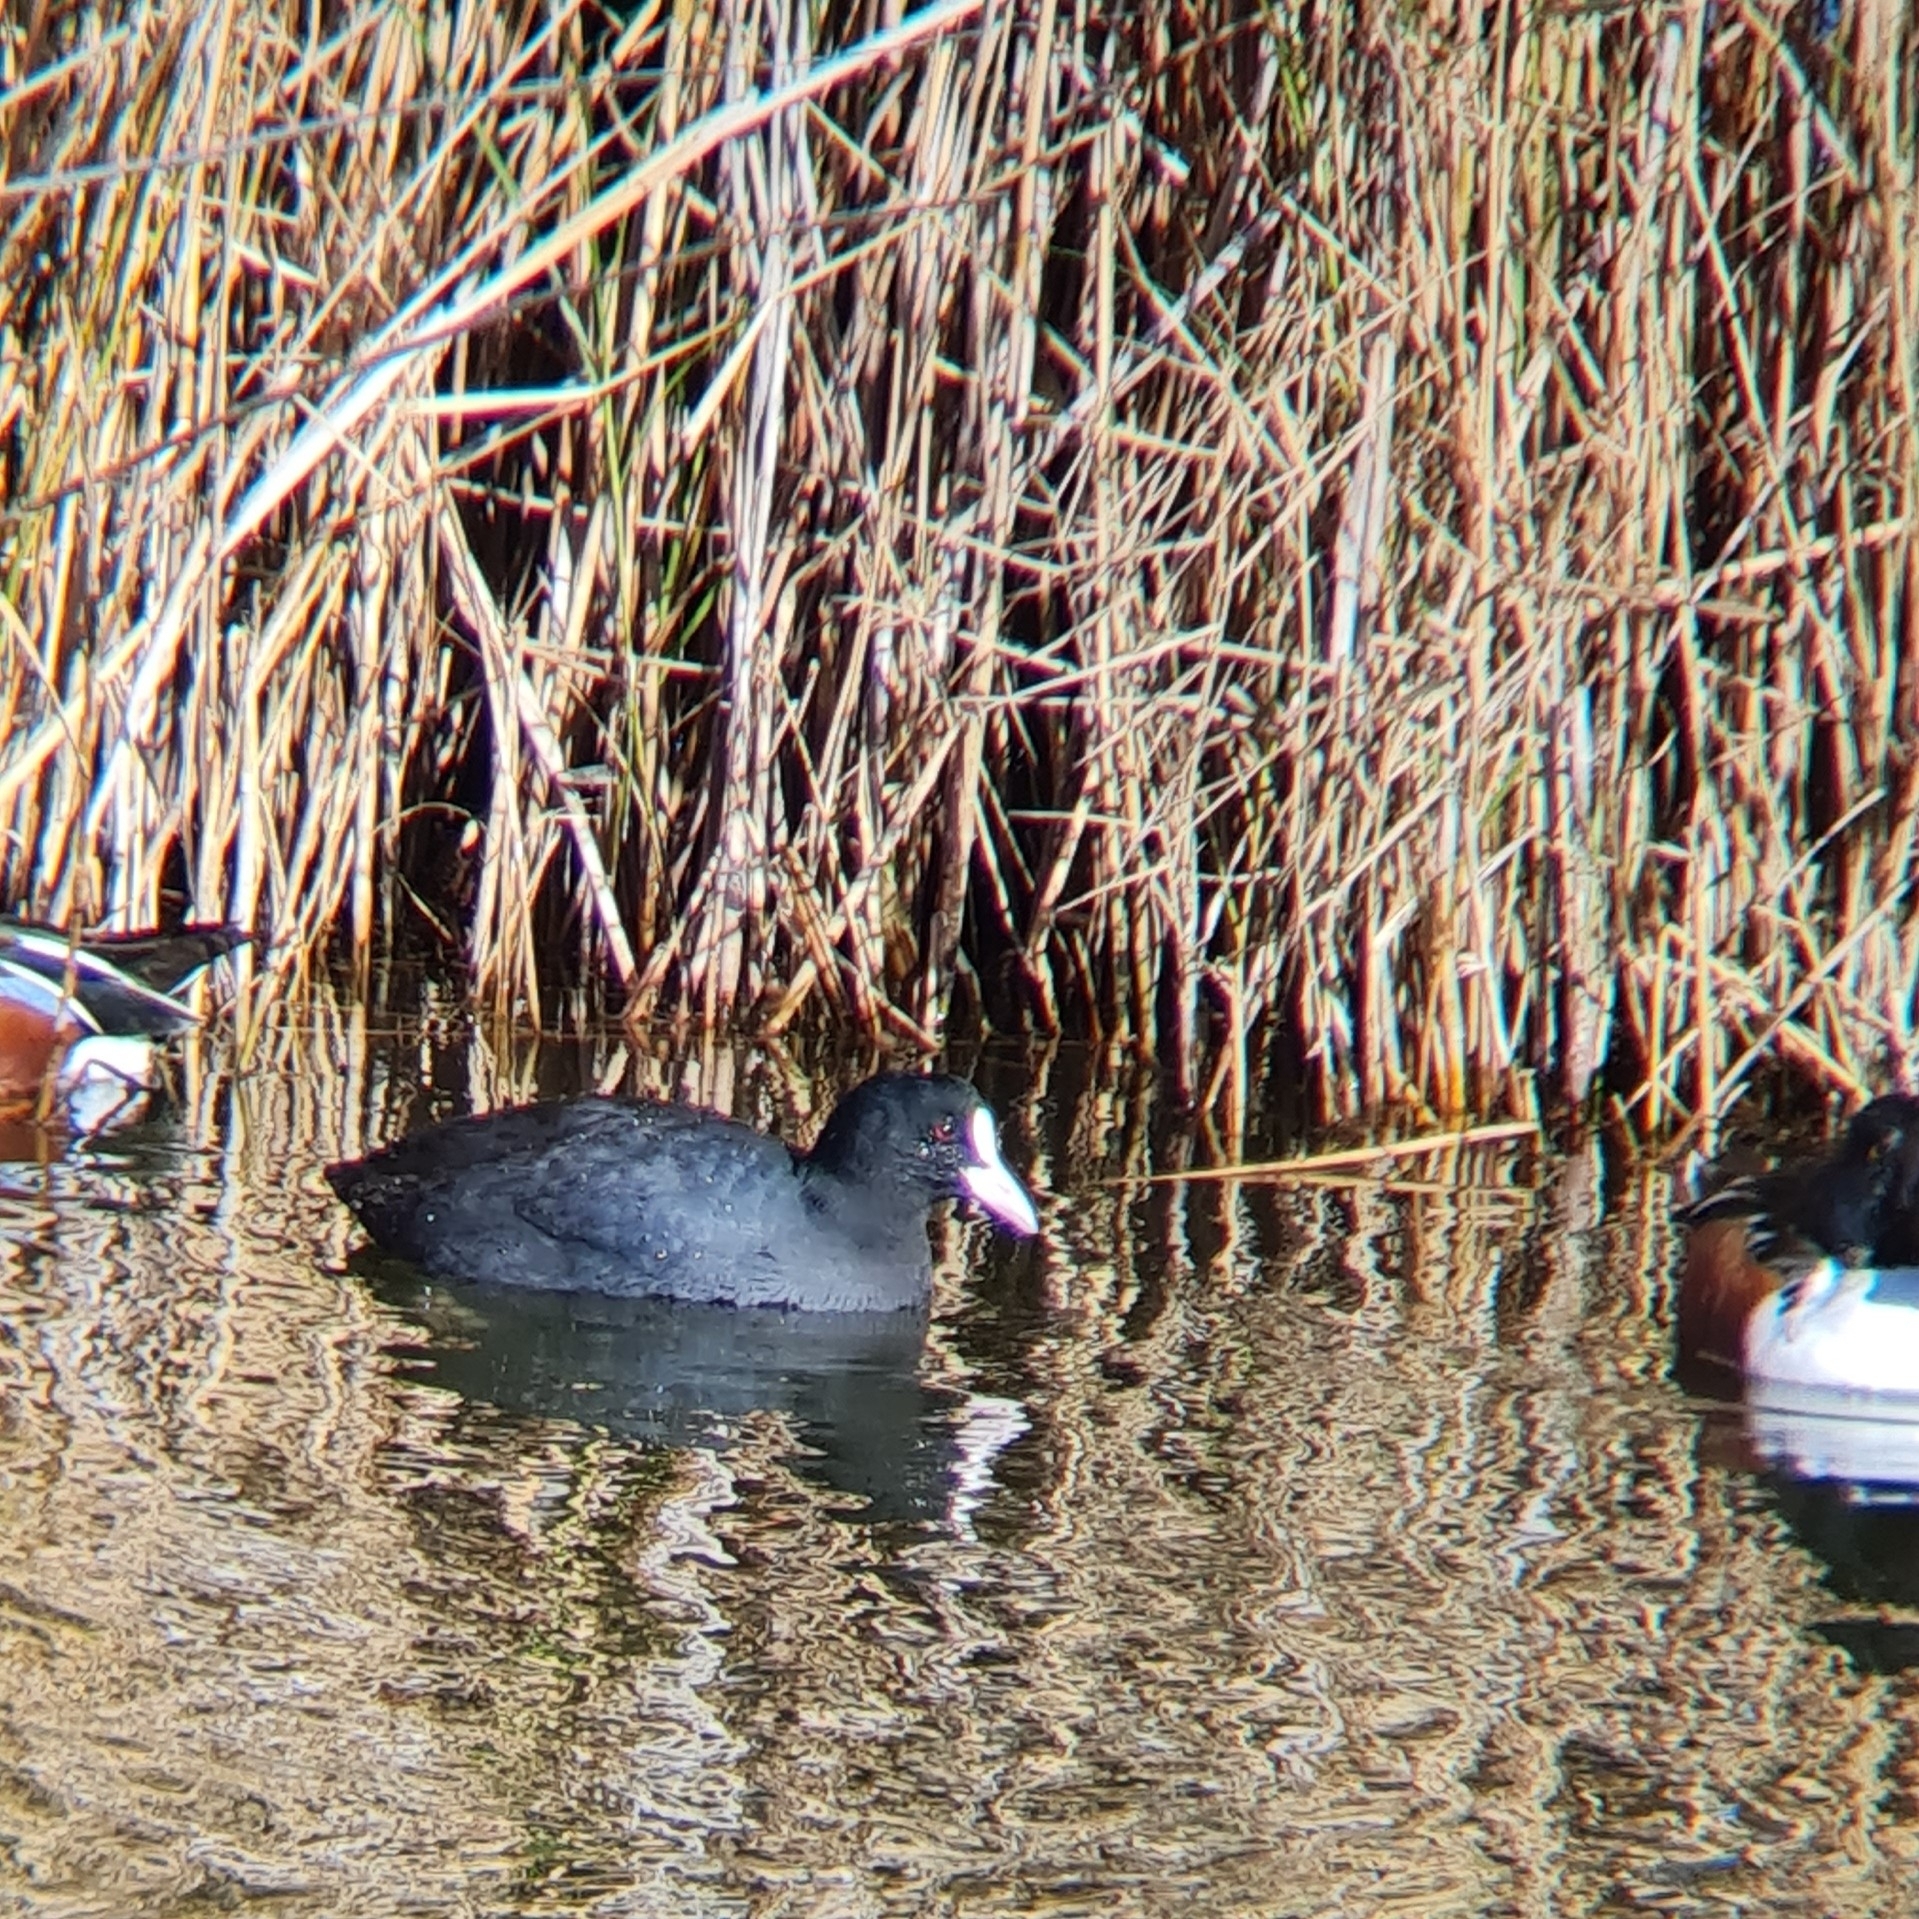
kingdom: Animalia
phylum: Chordata
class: Aves
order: Gruiformes
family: Rallidae
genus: Fulica
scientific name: Fulica atra
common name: Eurasian coot
